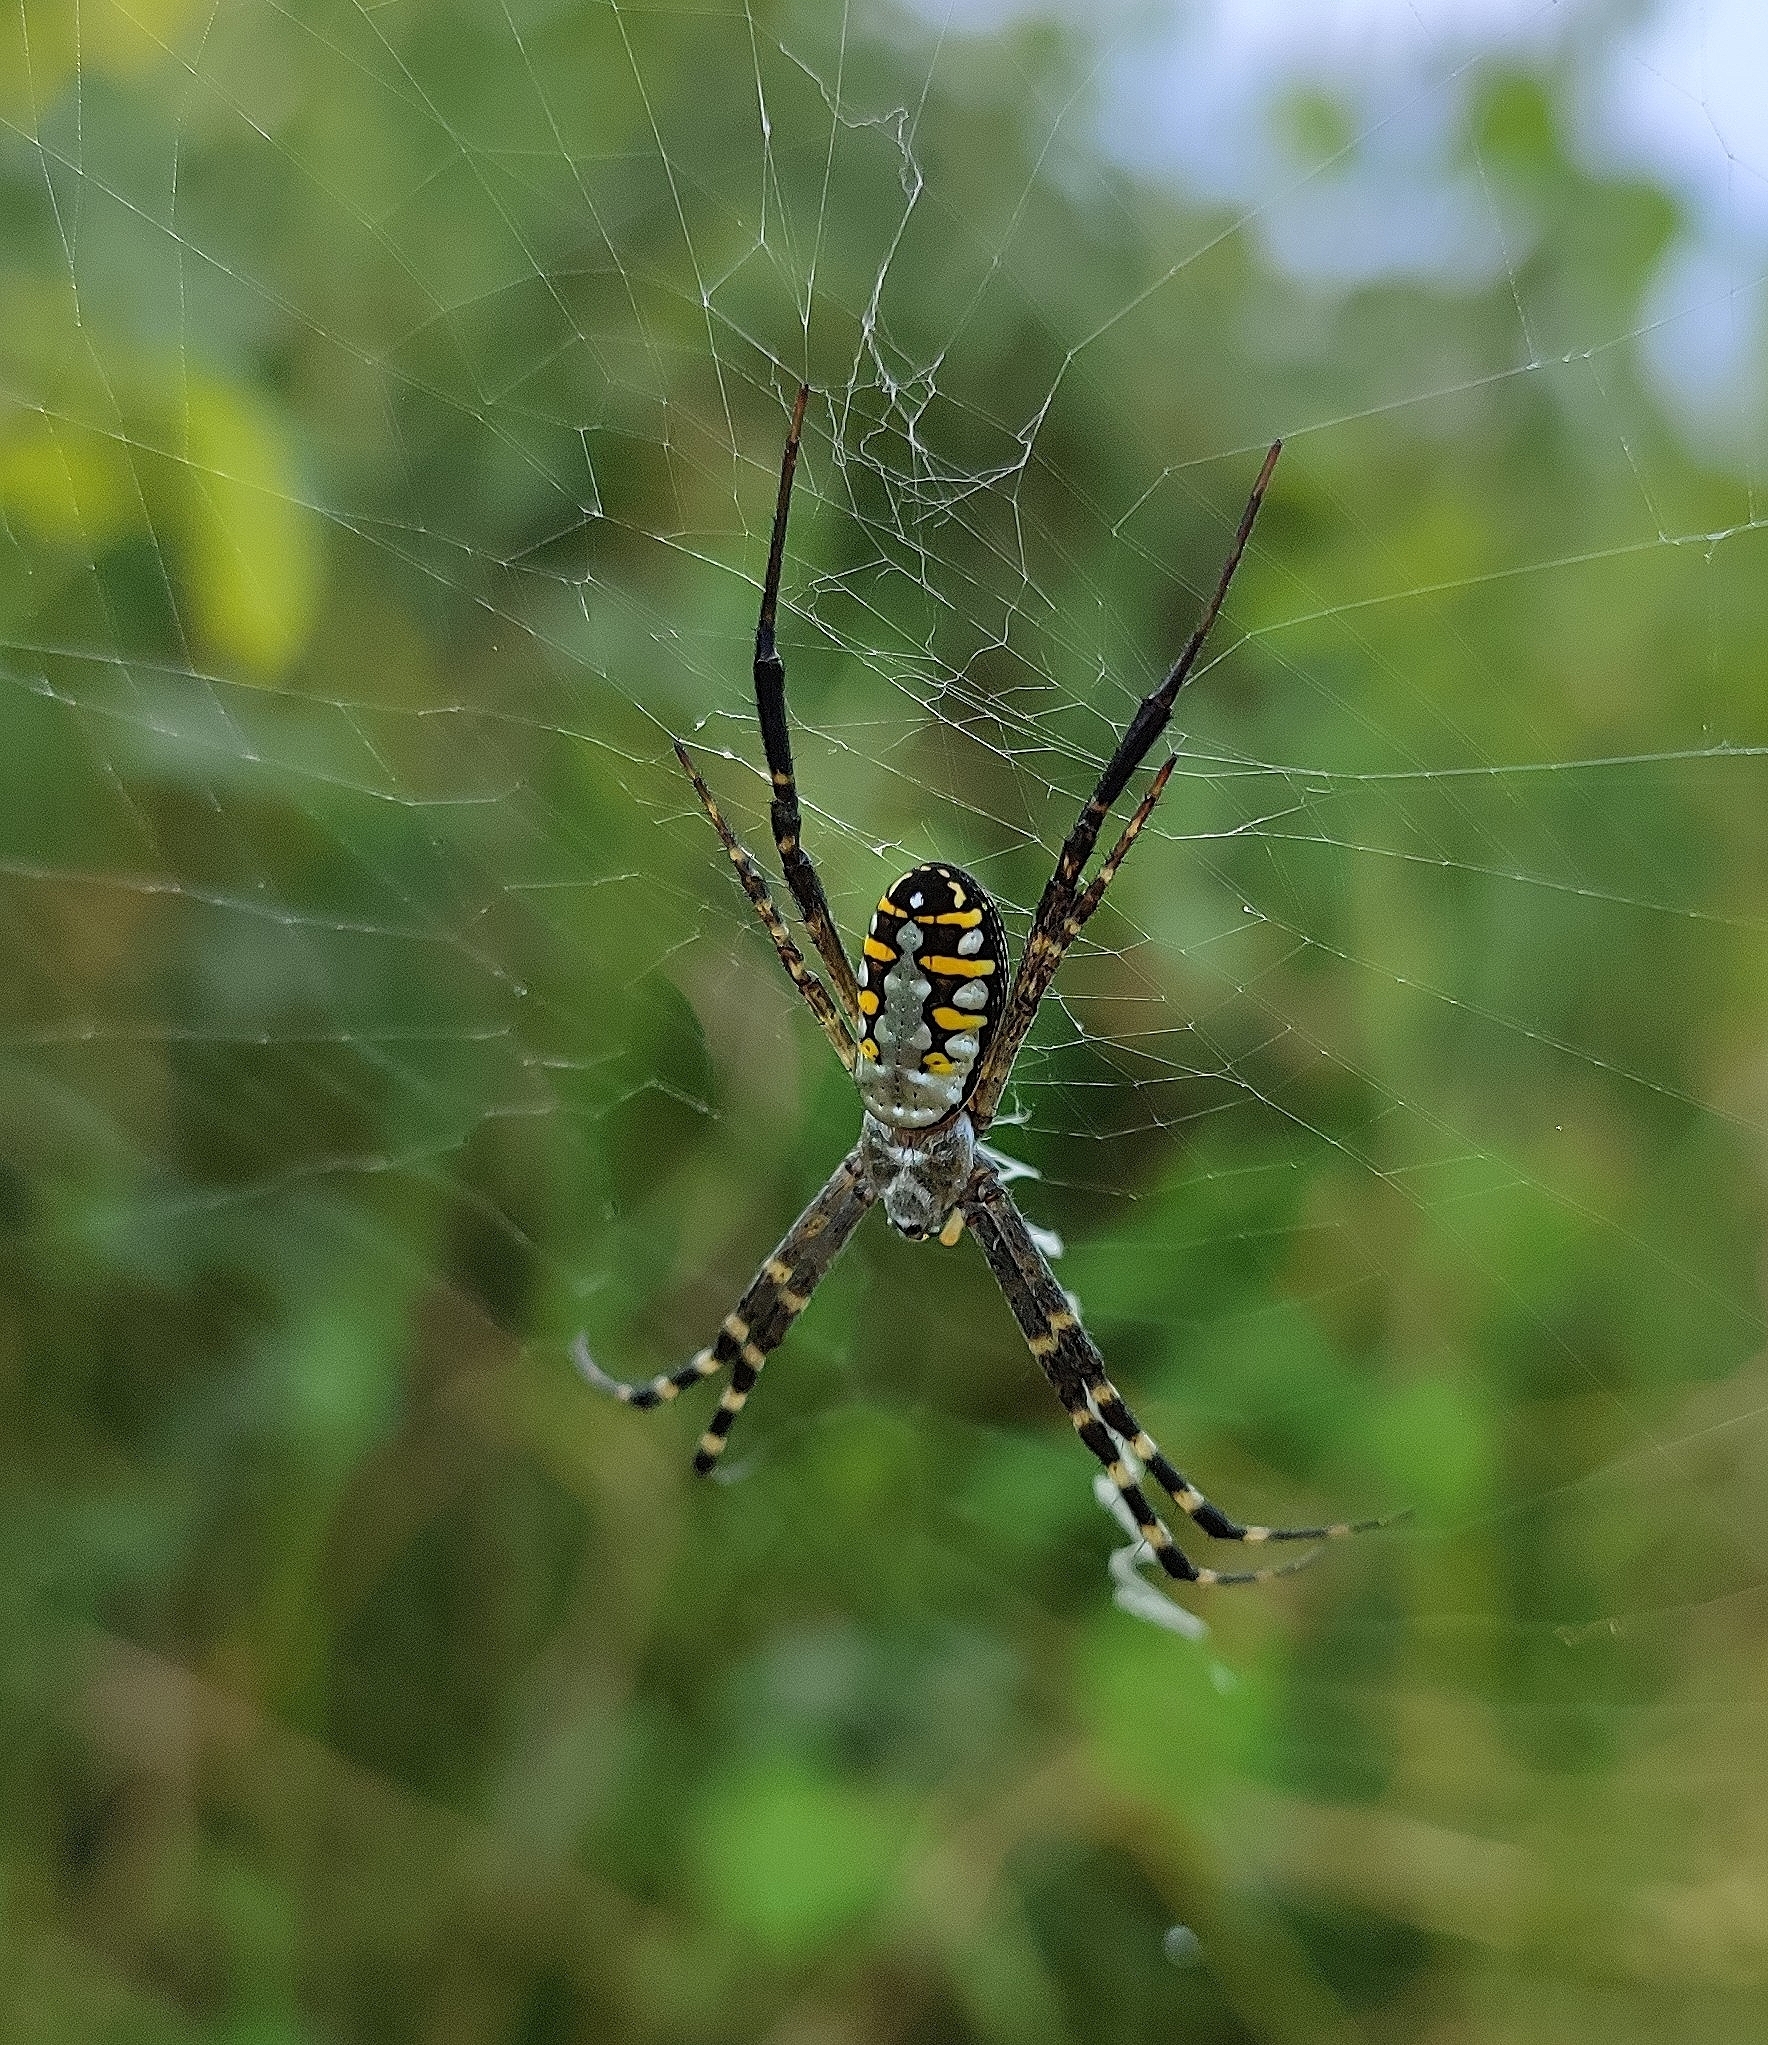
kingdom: Animalia
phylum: Arthropoda
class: Arachnida
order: Araneae
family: Araneidae
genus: Argiope
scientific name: Argiope catenulata
